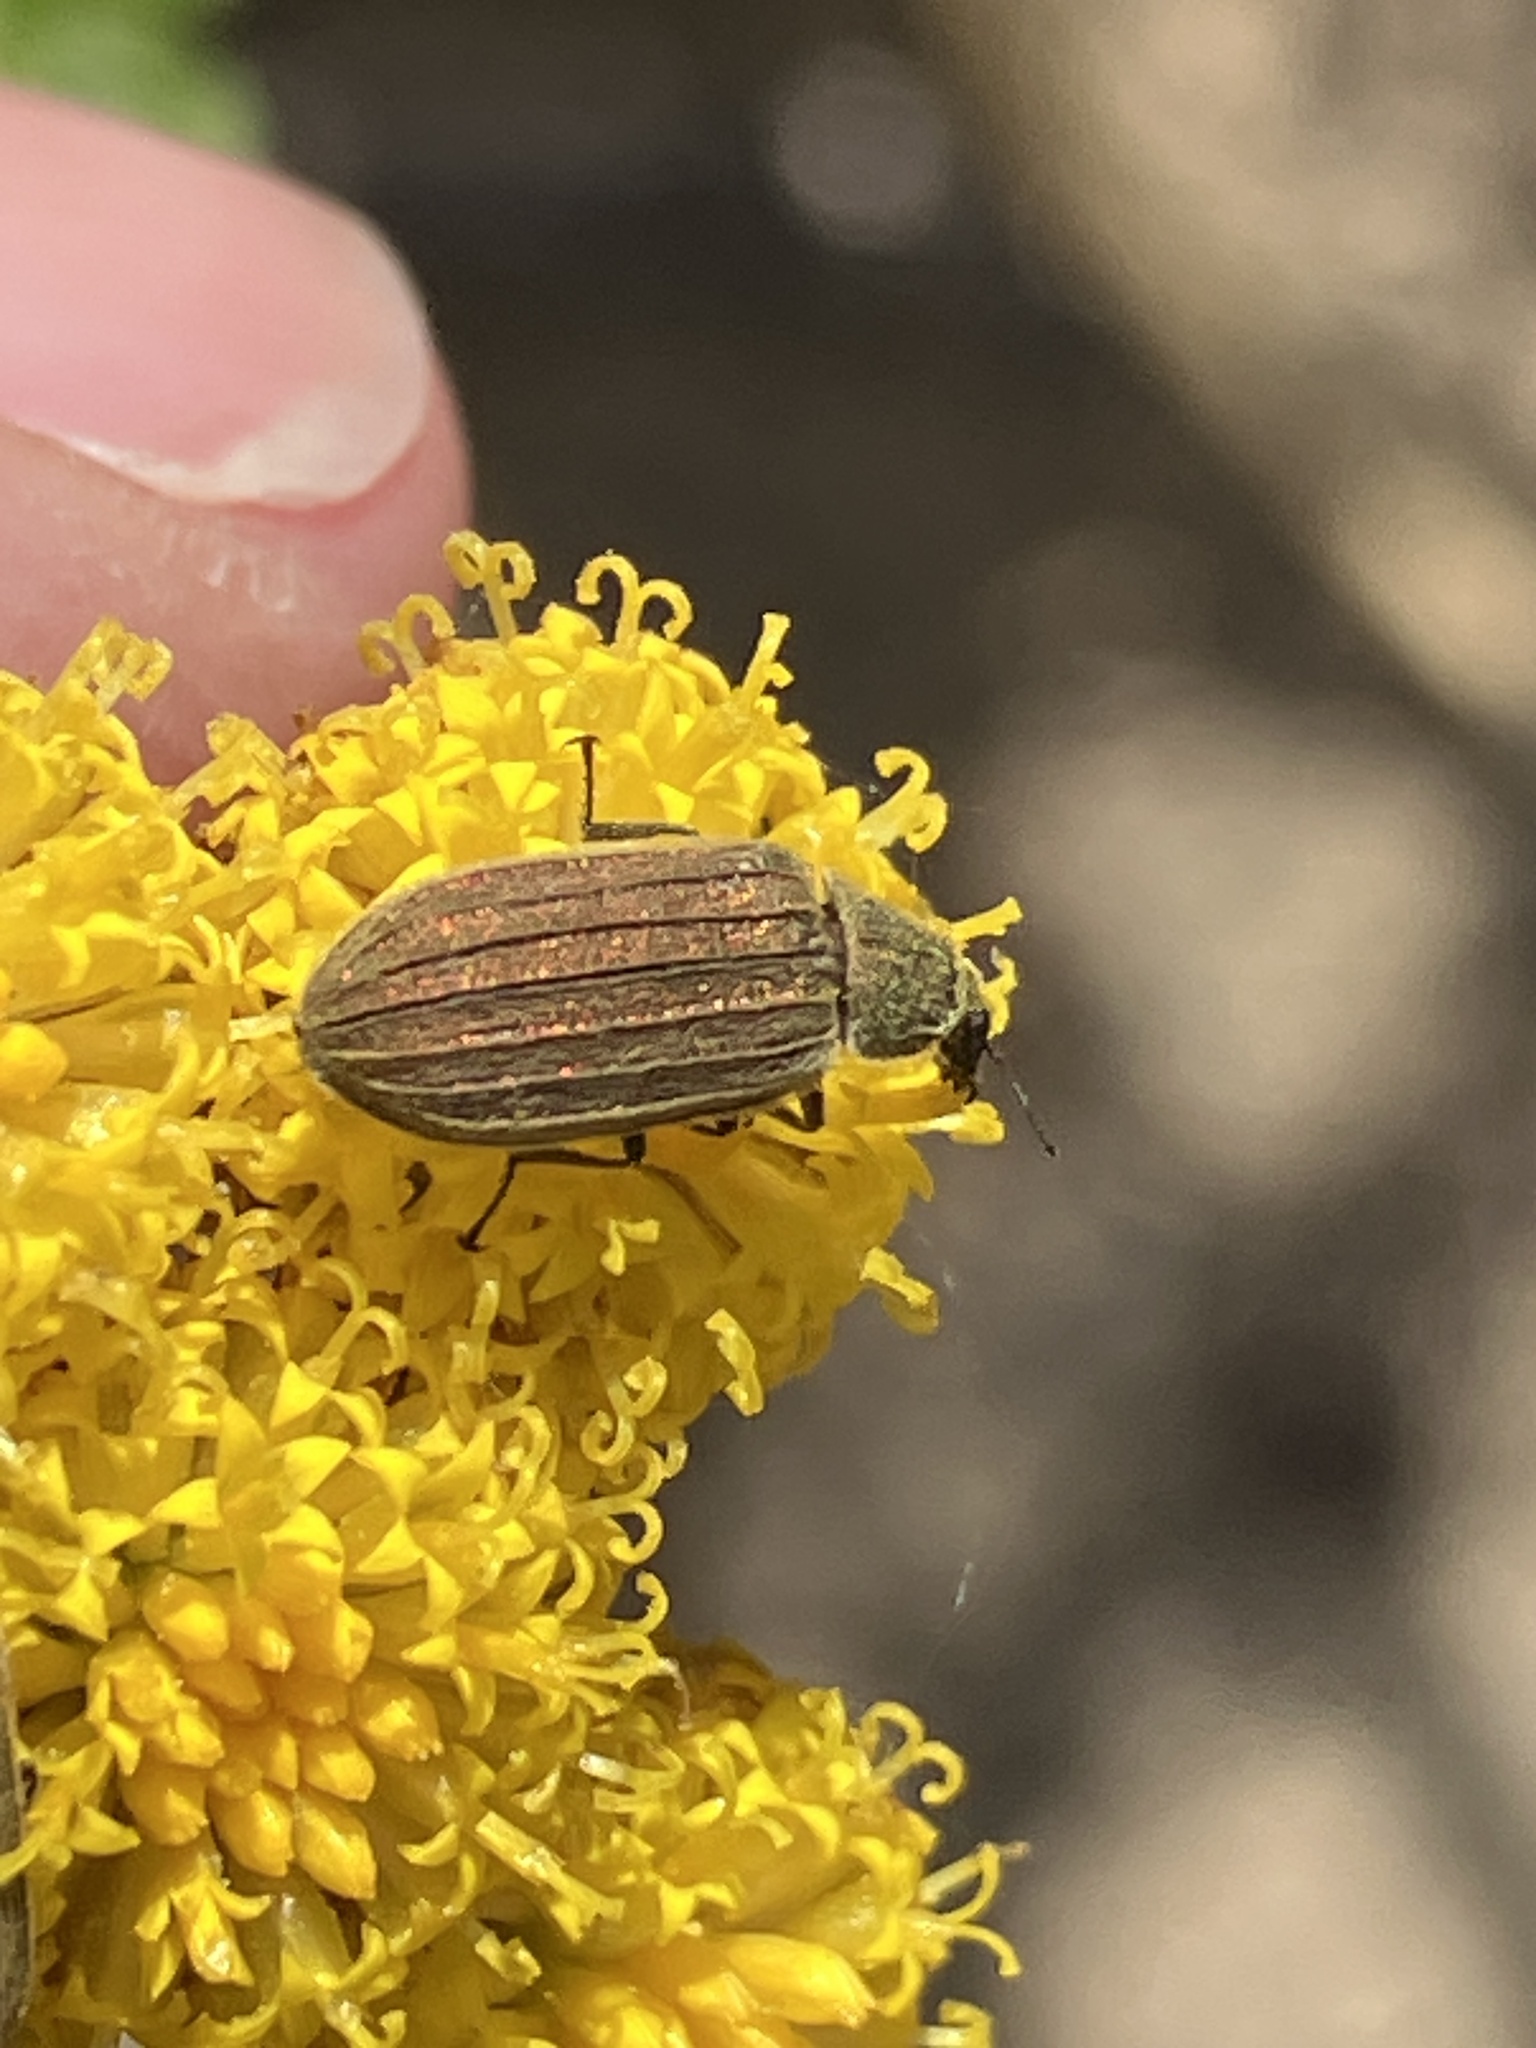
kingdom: Animalia
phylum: Arthropoda
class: Insecta
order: Coleoptera
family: Melyridae
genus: Melyris
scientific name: Melyris
